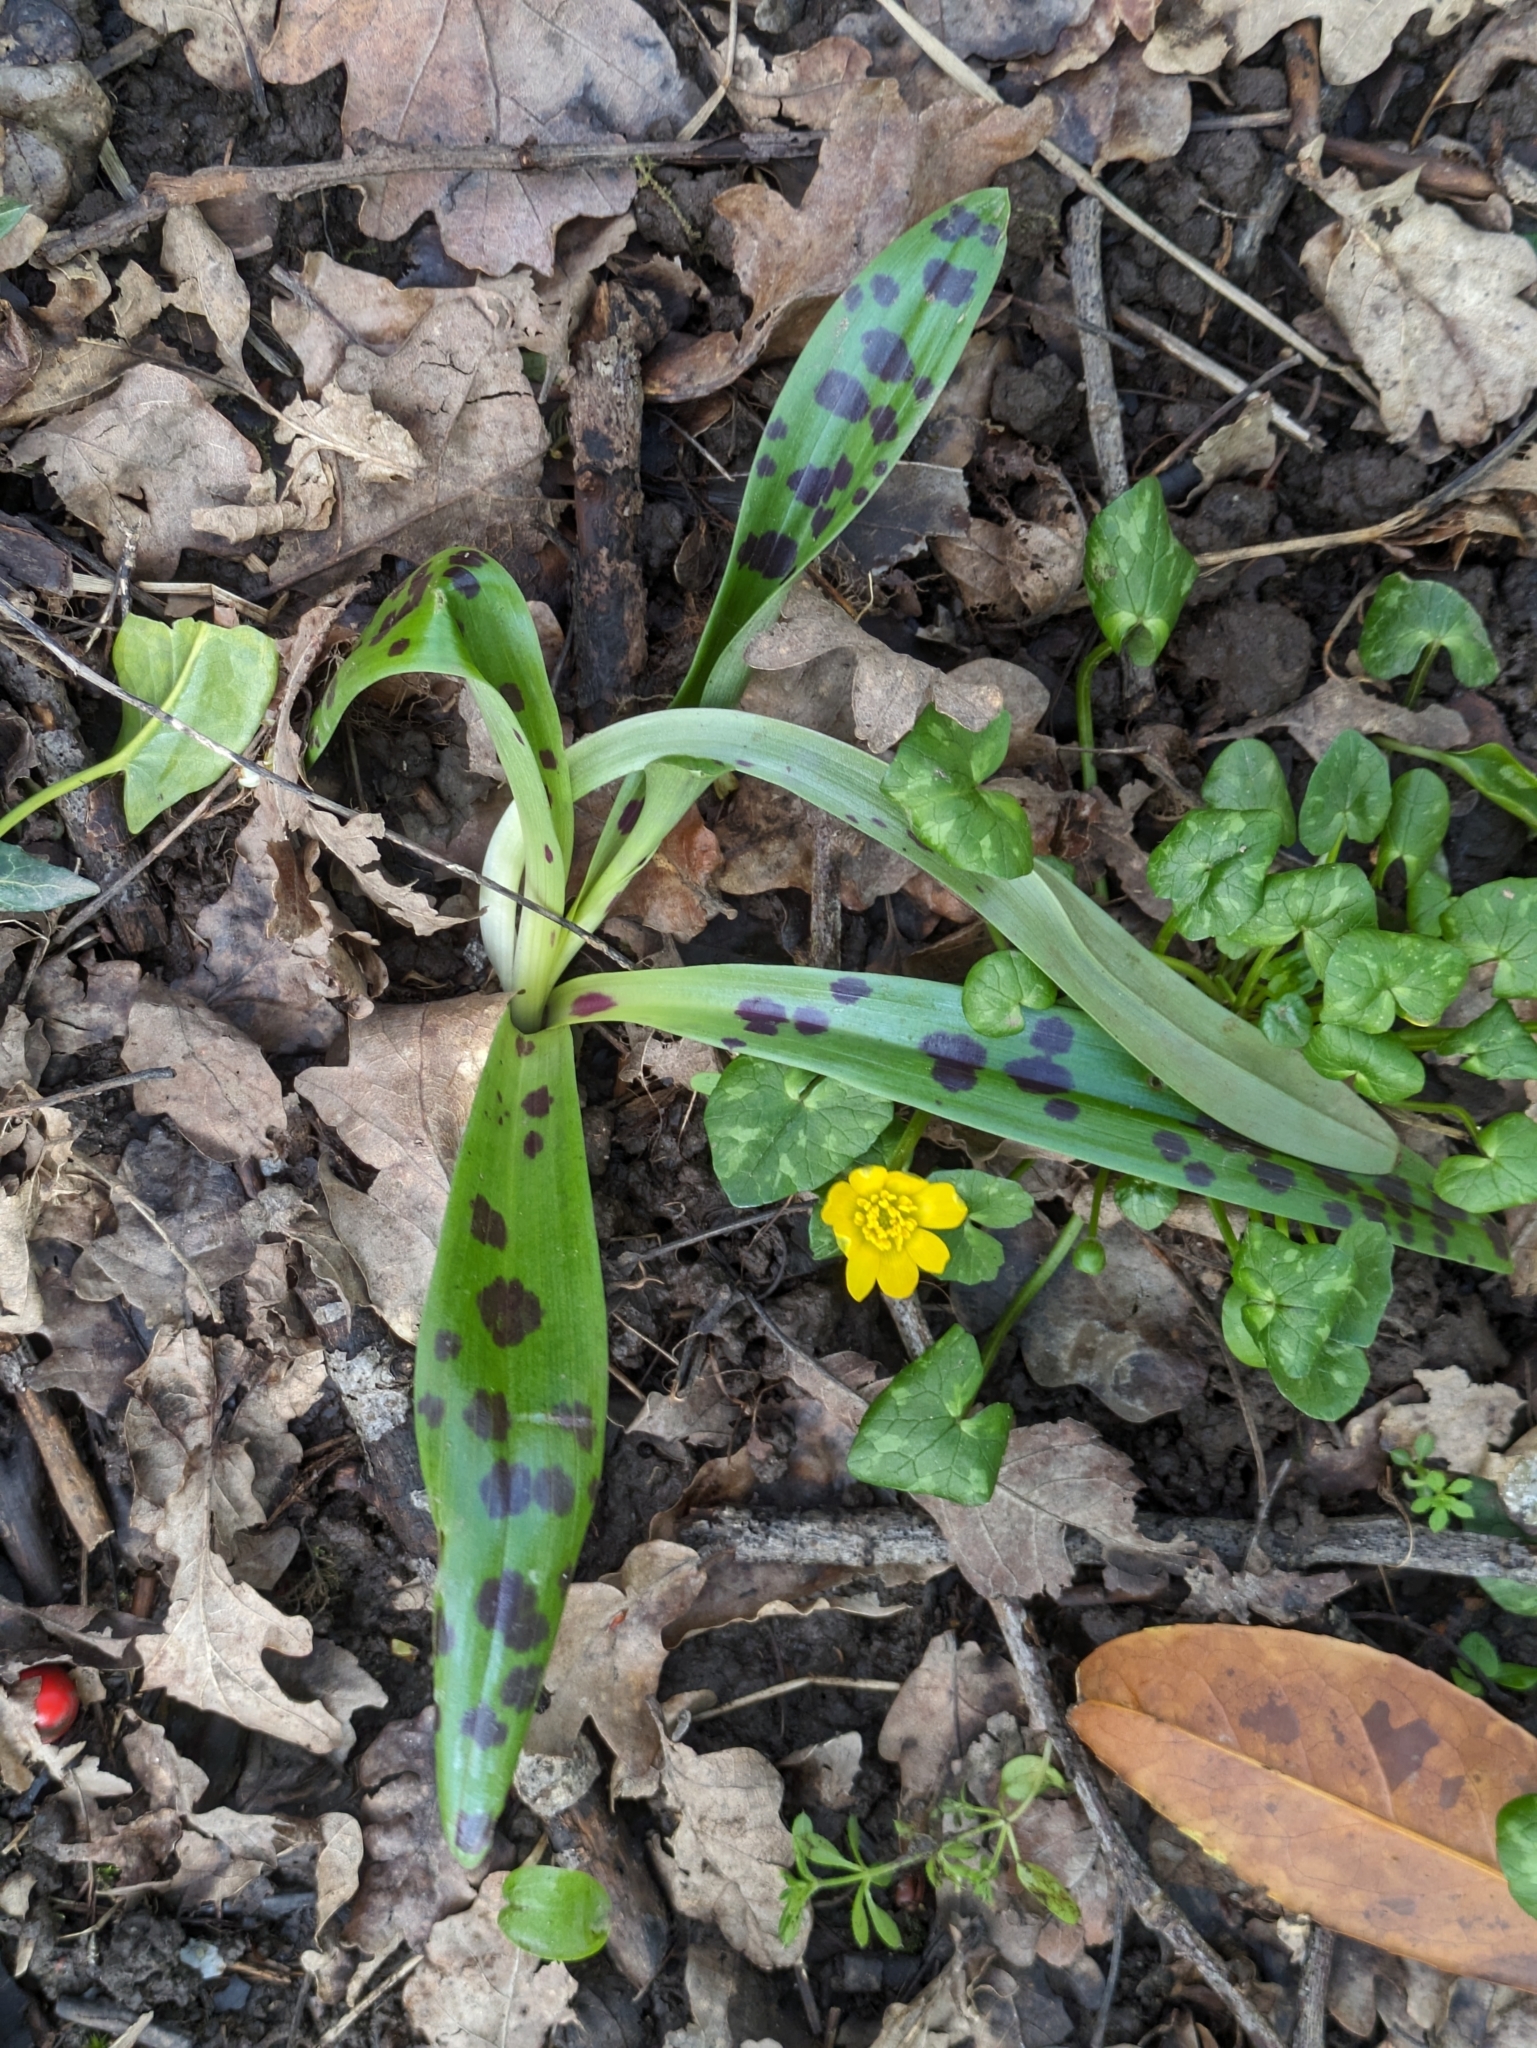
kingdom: Plantae
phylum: Tracheophyta
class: Liliopsida
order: Asparagales
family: Orchidaceae
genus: Orchis
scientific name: Orchis mascula
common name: Early-purple orchid
